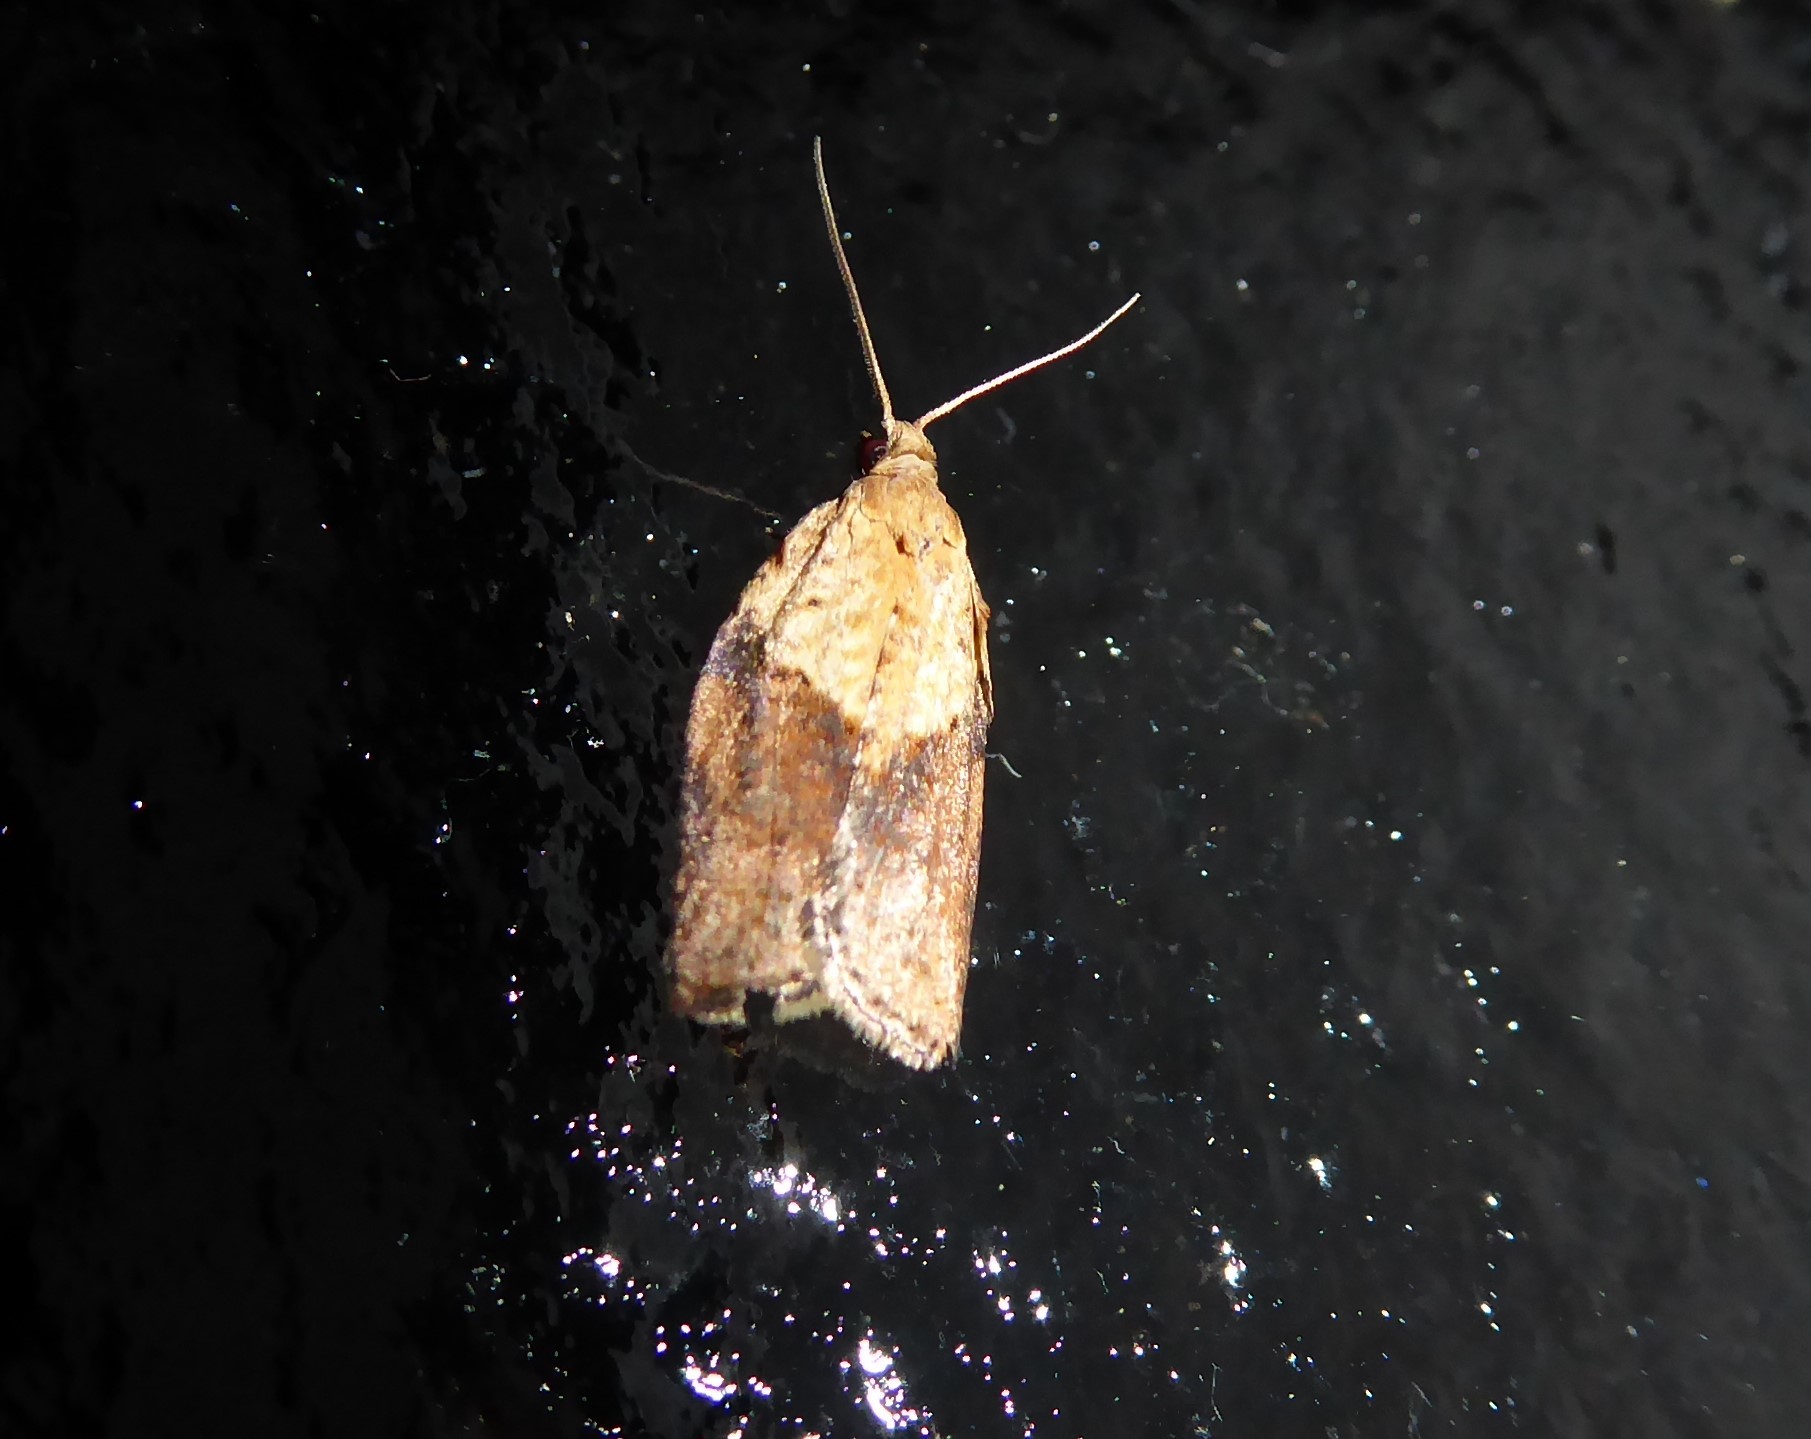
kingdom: Animalia
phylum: Arthropoda
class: Insecta
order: Lepidoptera
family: Tortricidae
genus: Epiphyas
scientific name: Epiphyas postvittana
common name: Light brown apple moth
